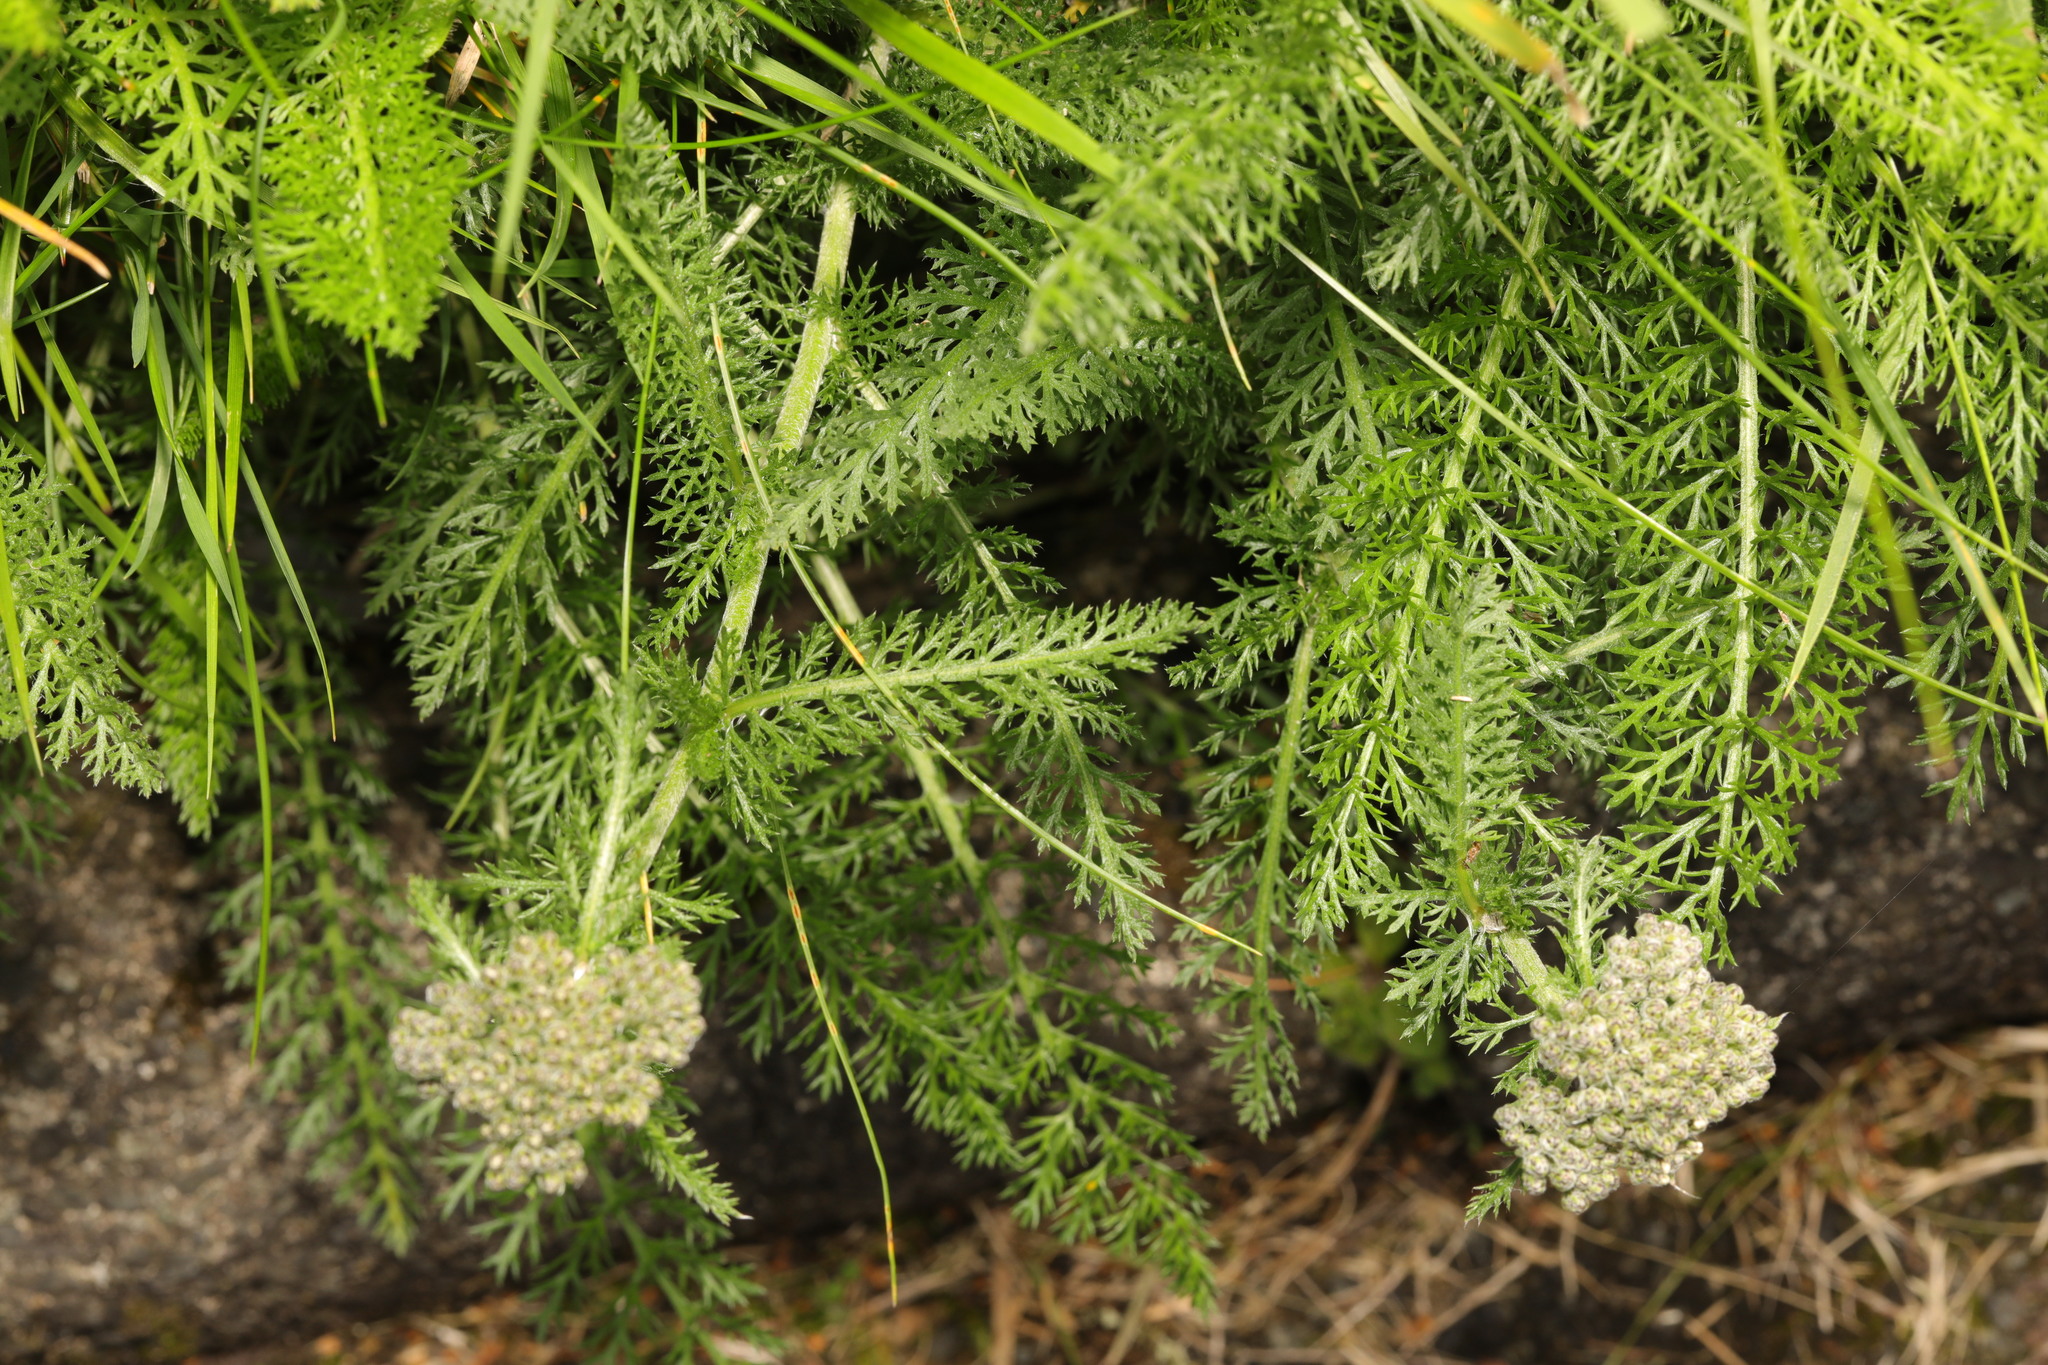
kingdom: Plantae
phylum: Tracheophyta
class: Magnoliopsida
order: Asterales
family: Asteraceae
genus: Achillea
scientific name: Achillea millefolium
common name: Yarrow
